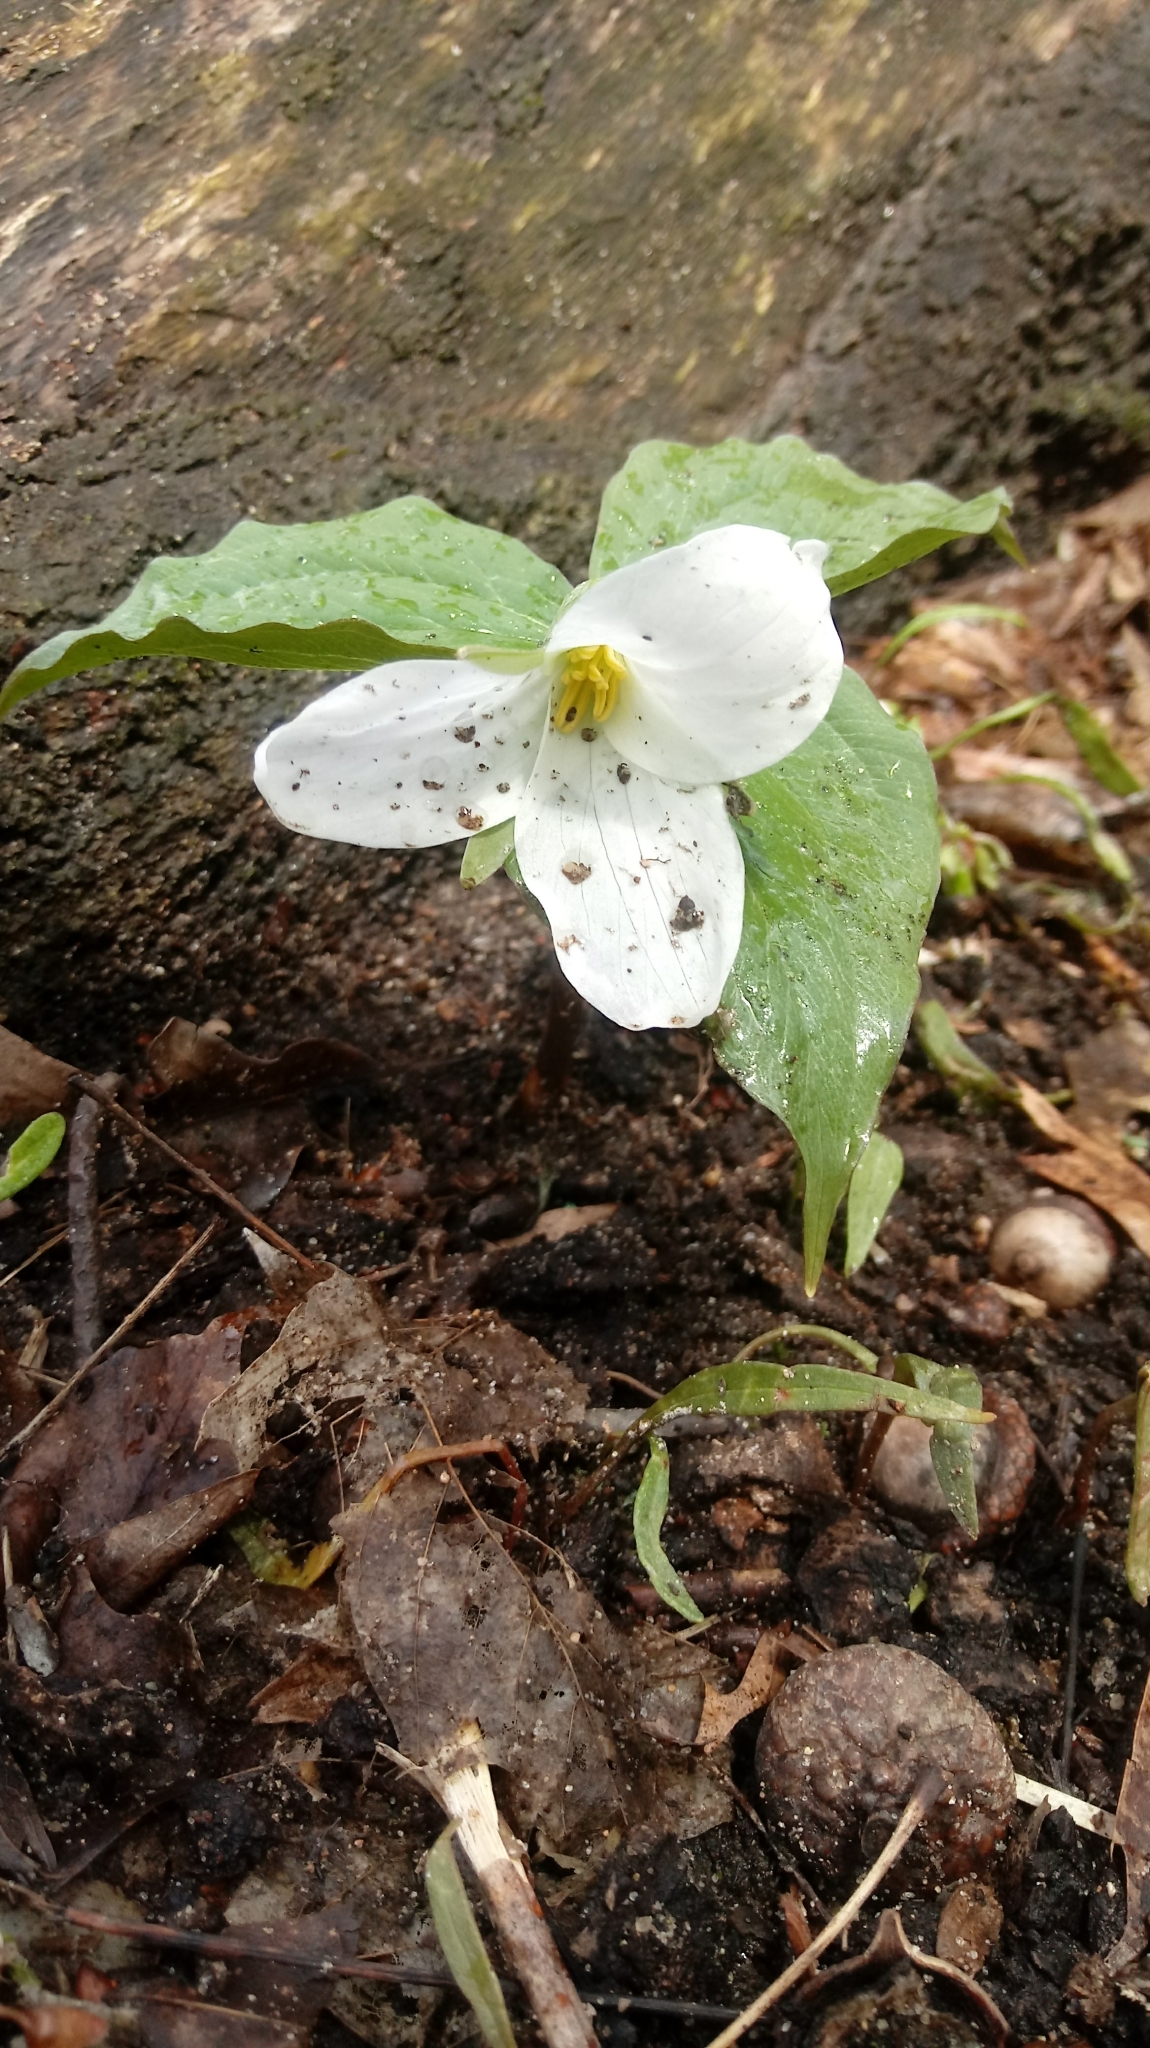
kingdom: Plantae
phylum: Tracheophyta
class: Liliopsida
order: Liliales
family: Melanthiaceae
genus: Trillium
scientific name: Trillium grandiflorum
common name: Great white trillium
